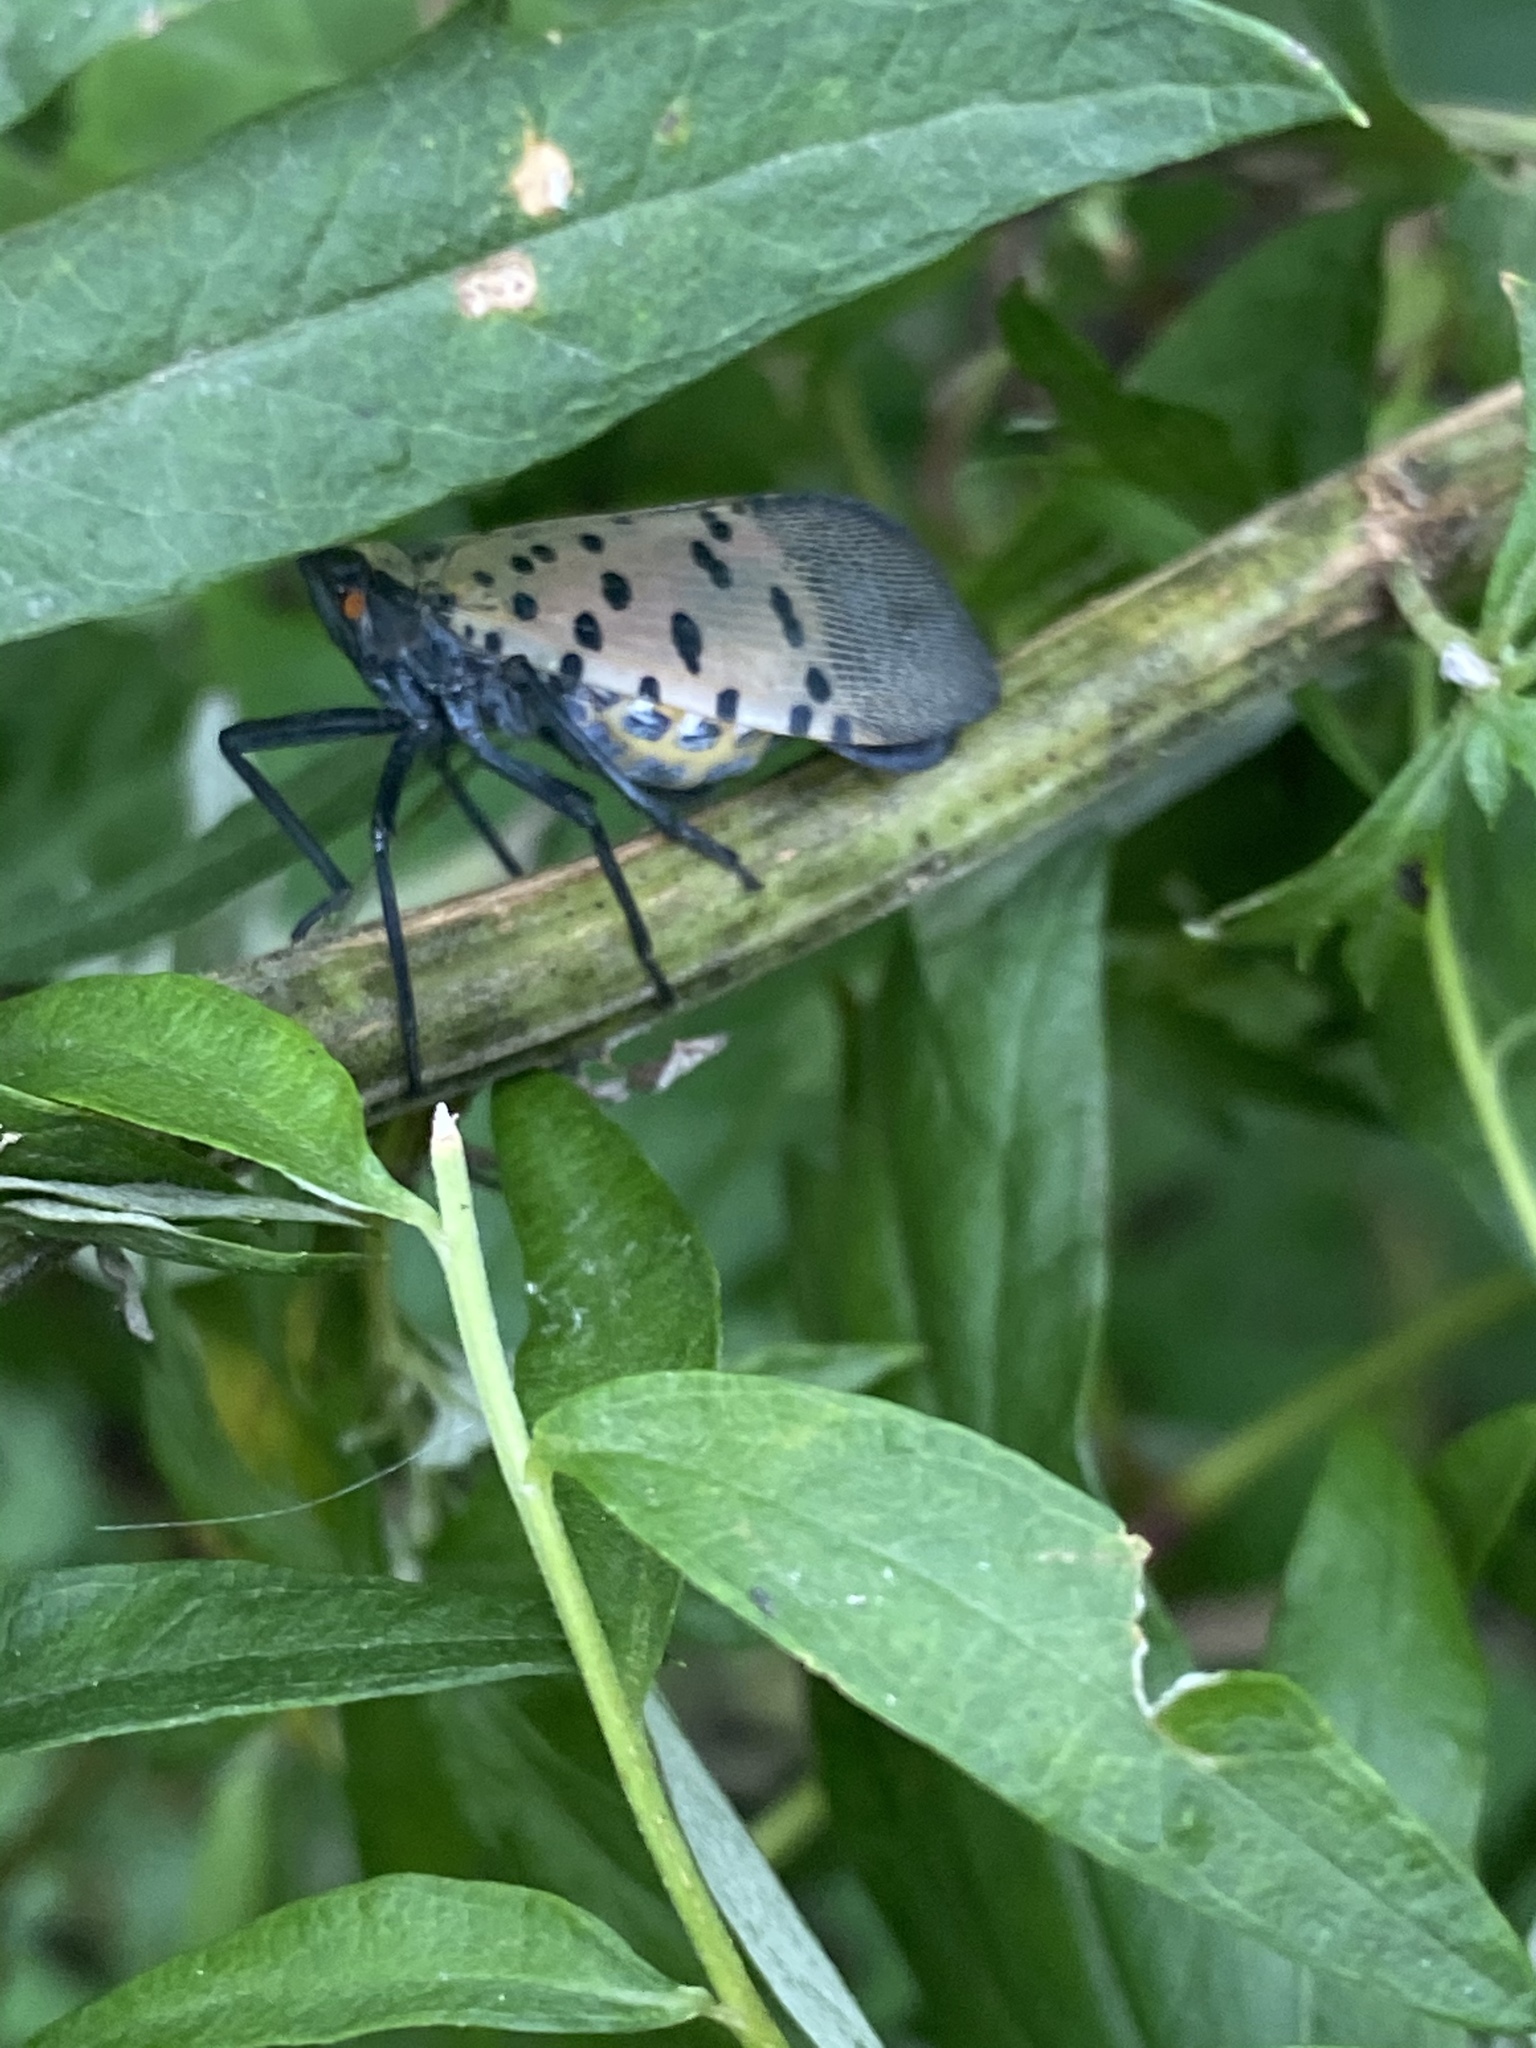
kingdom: Animalia
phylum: Arthropoda
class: Insecta
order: Hemiptera
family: Fulgoridae
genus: Lycorma
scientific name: Lycorma delicatula
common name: Spotted lanternfly
